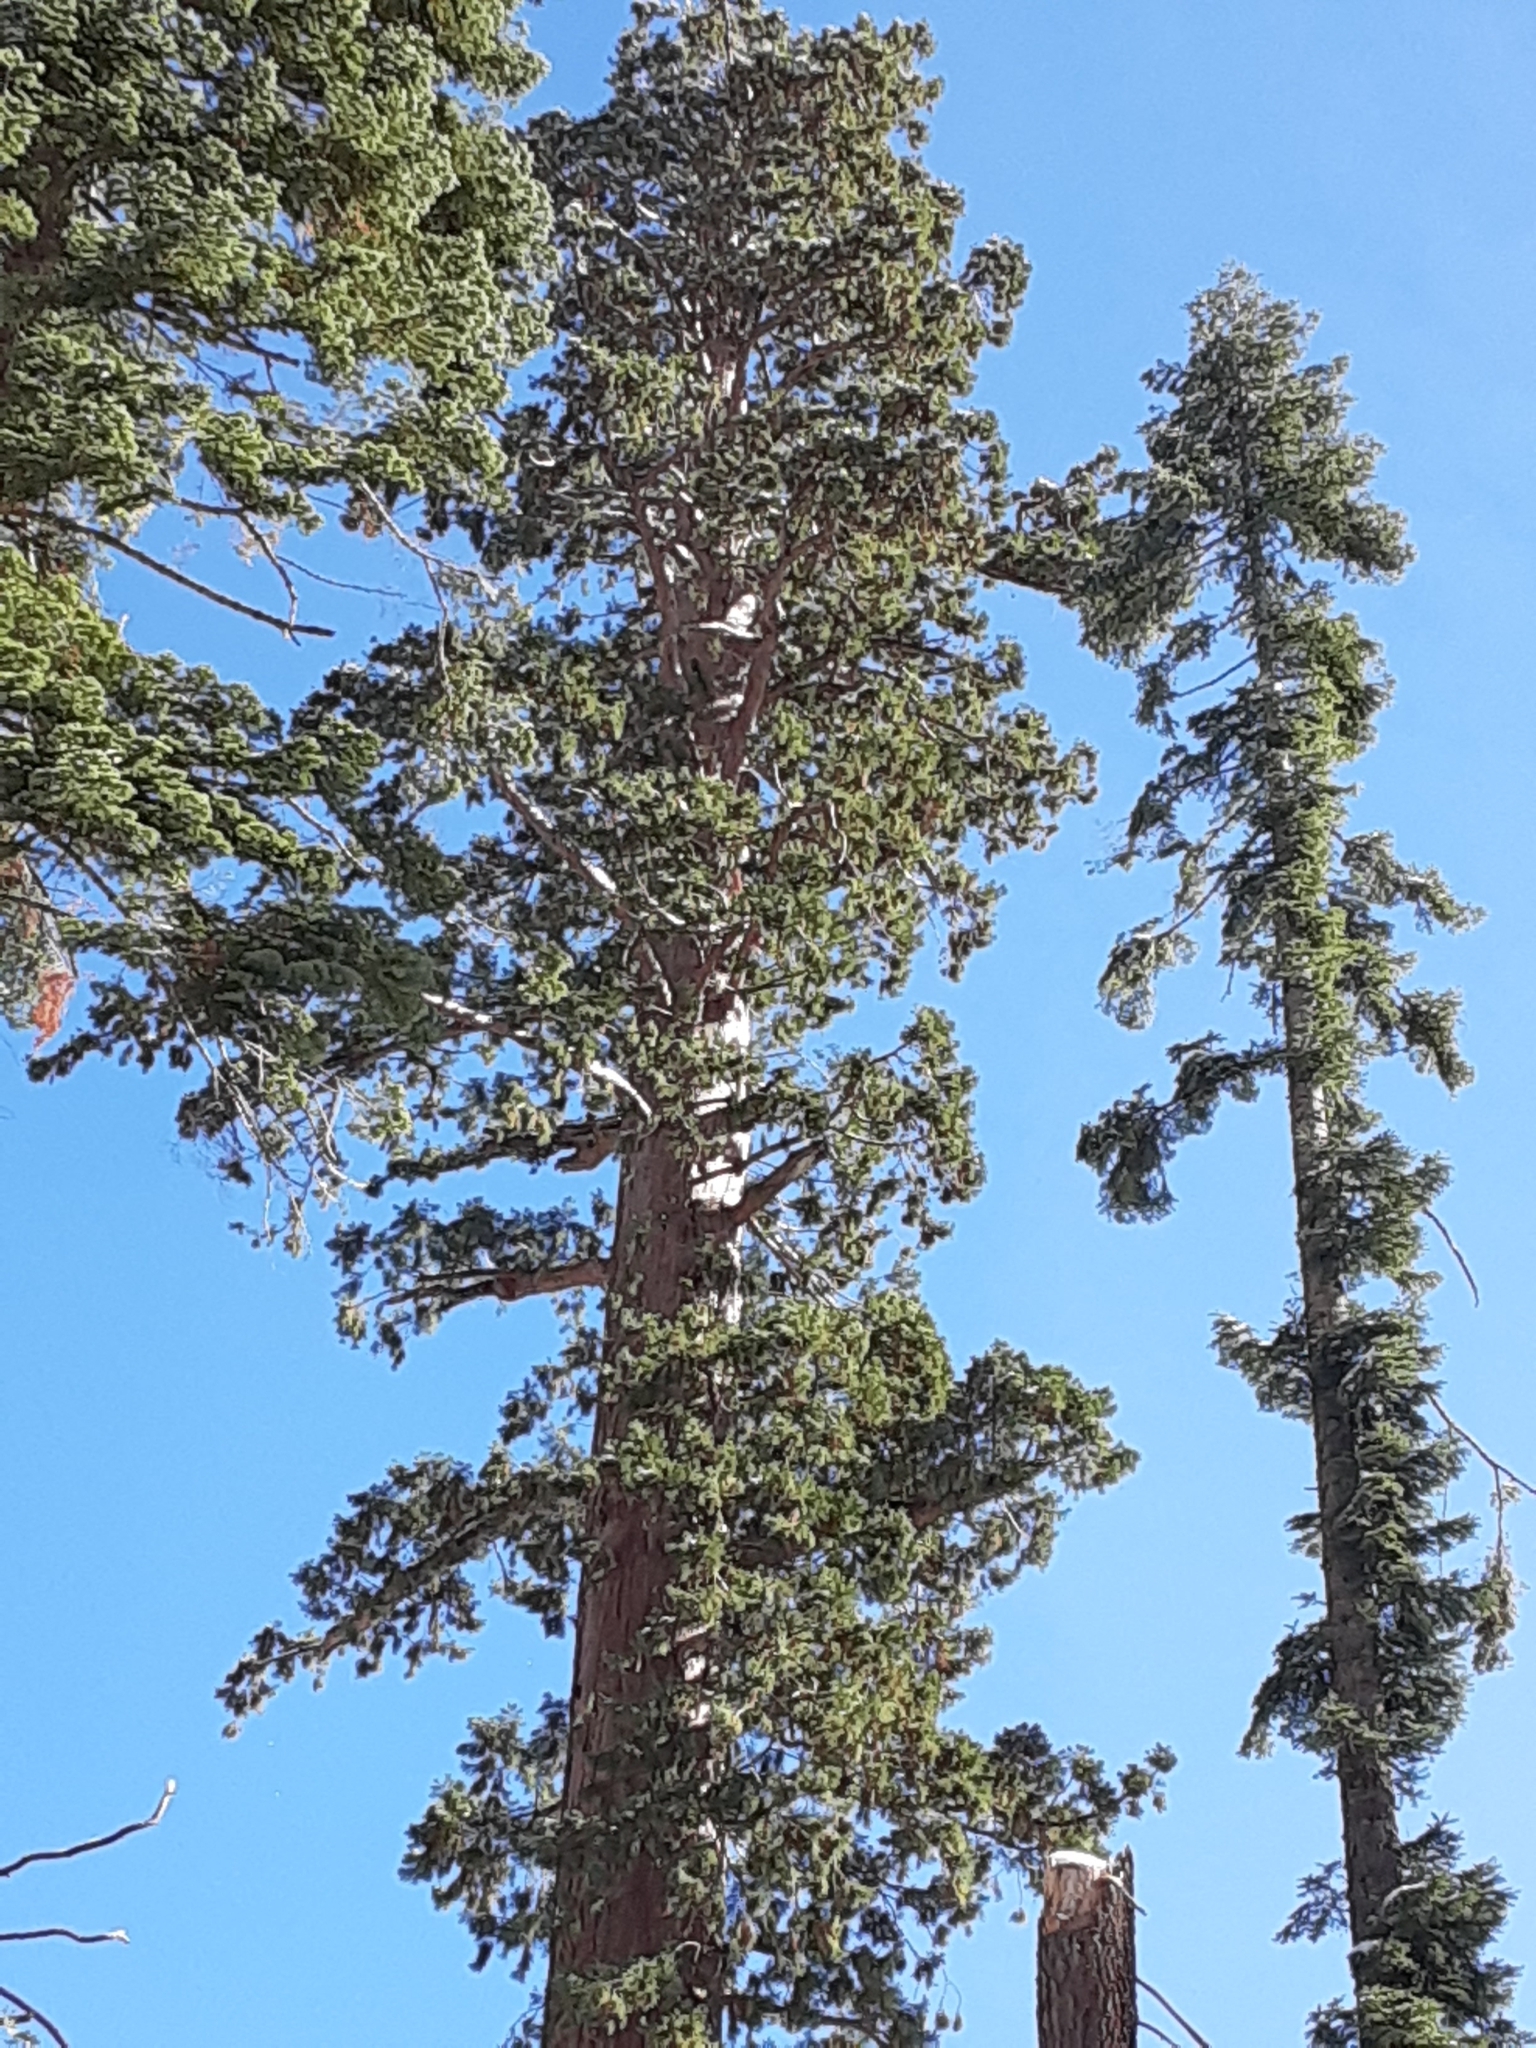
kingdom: Plantae
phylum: Tracheophyta
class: Pinopsida
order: Pinales
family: Cupressaceae
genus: Sequoiadendron
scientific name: Sequoiadendron giganteum
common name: Wellingtonia
